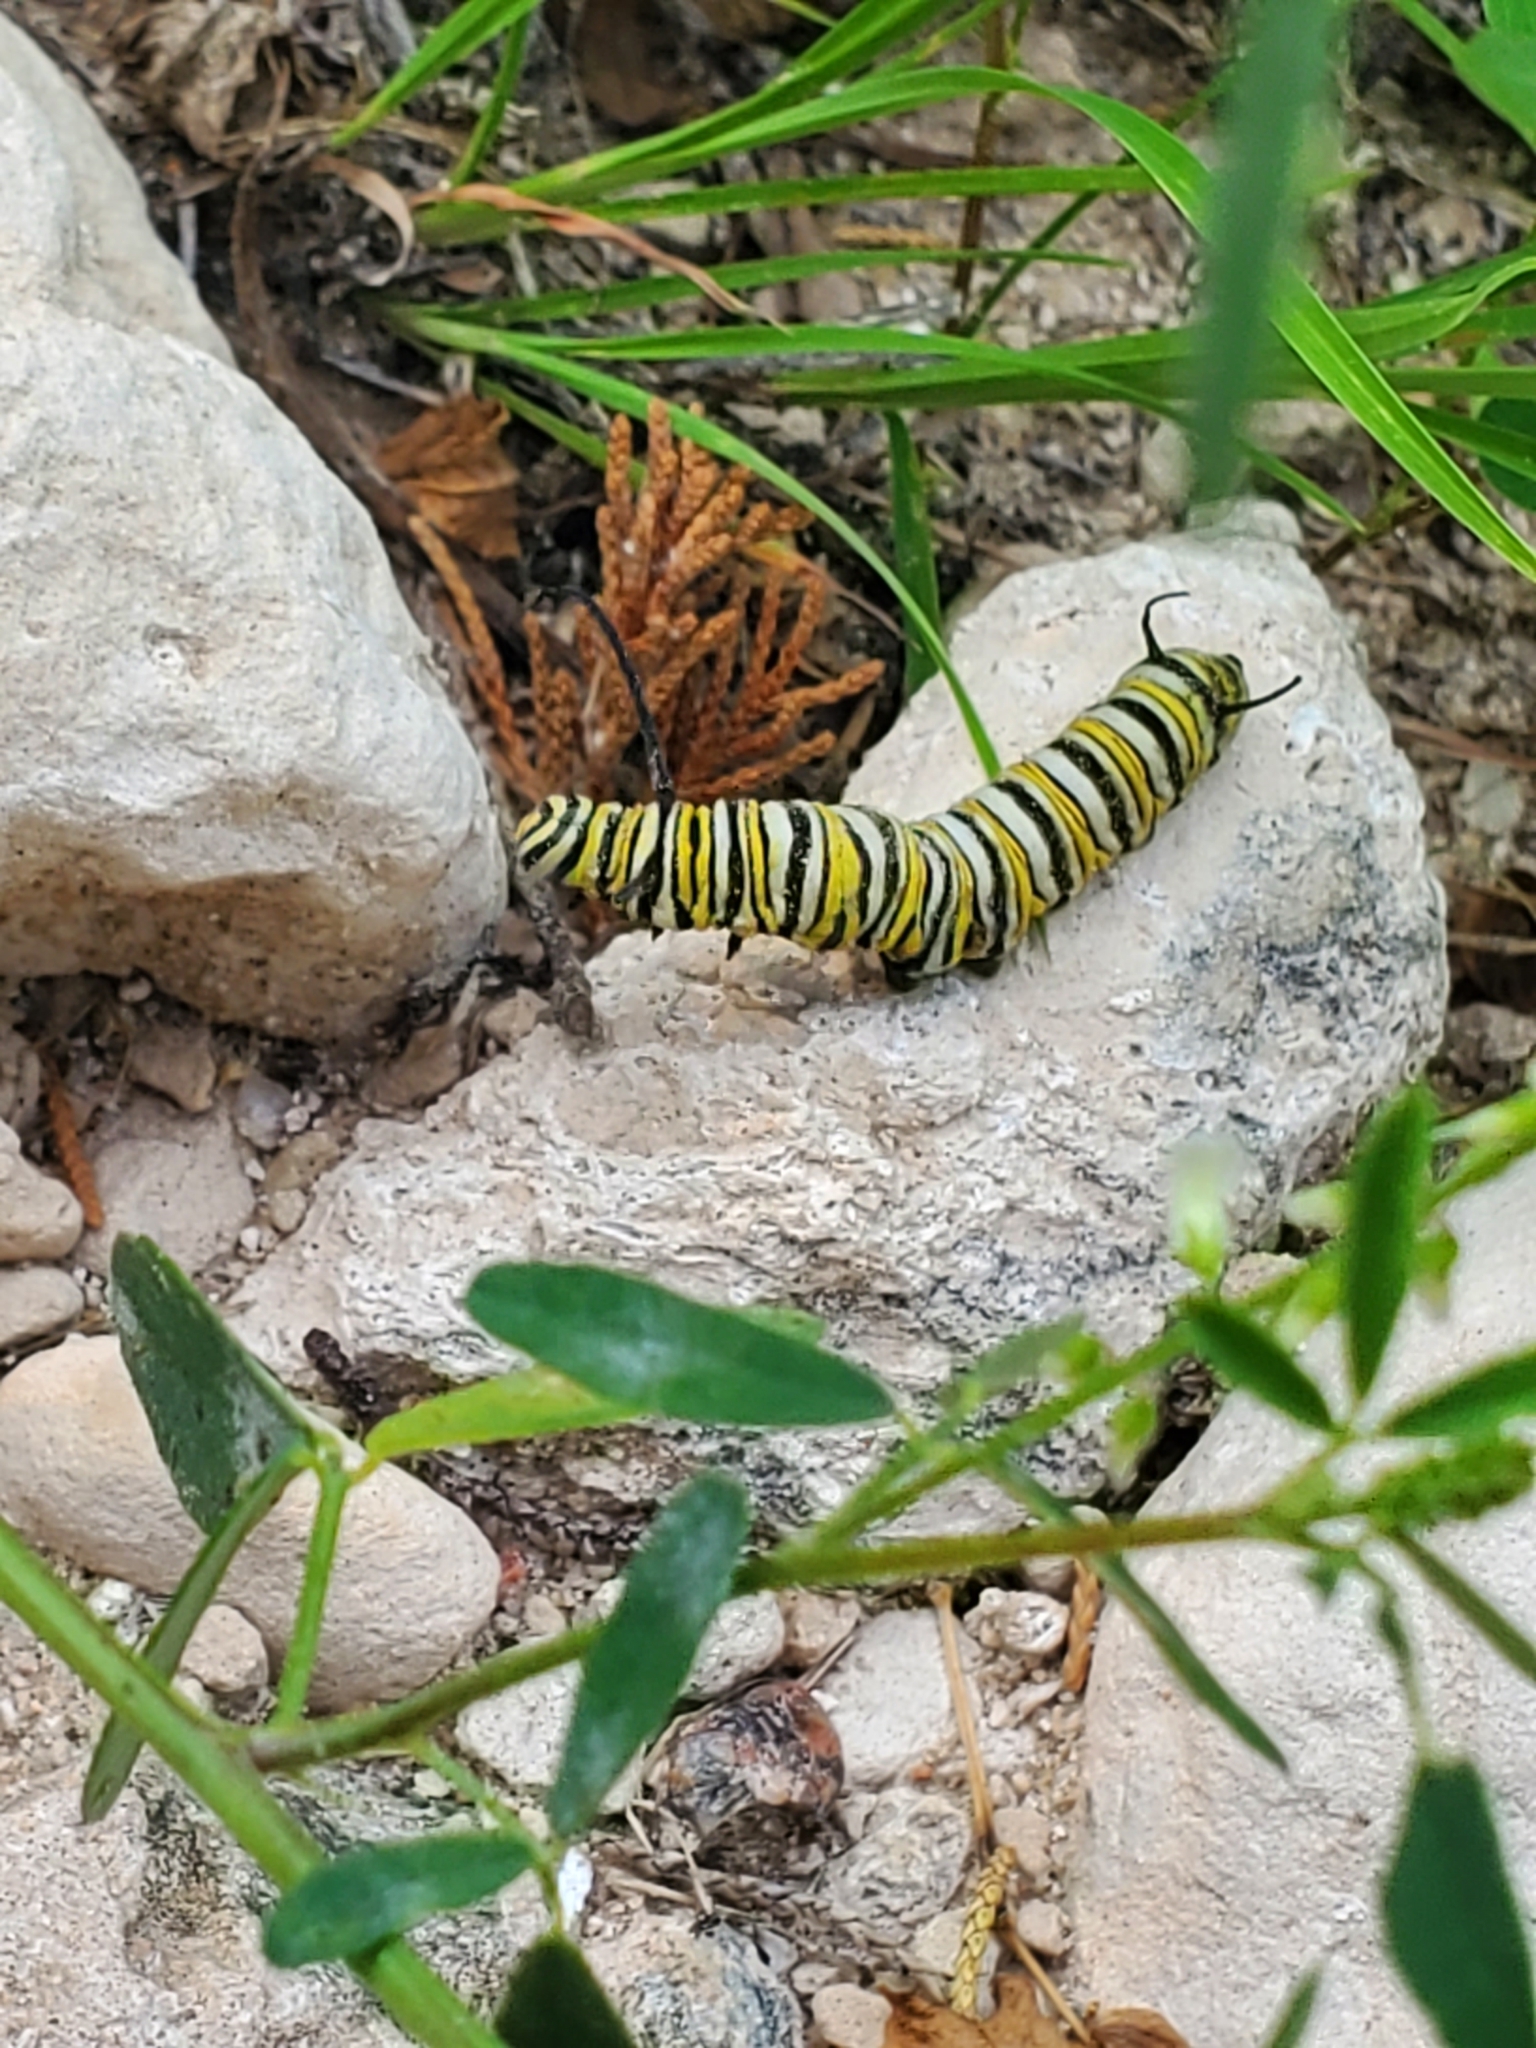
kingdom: Animalia
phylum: Arthropoda
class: Insecta
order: Lepidoptera
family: Nymphalidae
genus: Danaus
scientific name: Danaus plexippus
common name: Monarch
